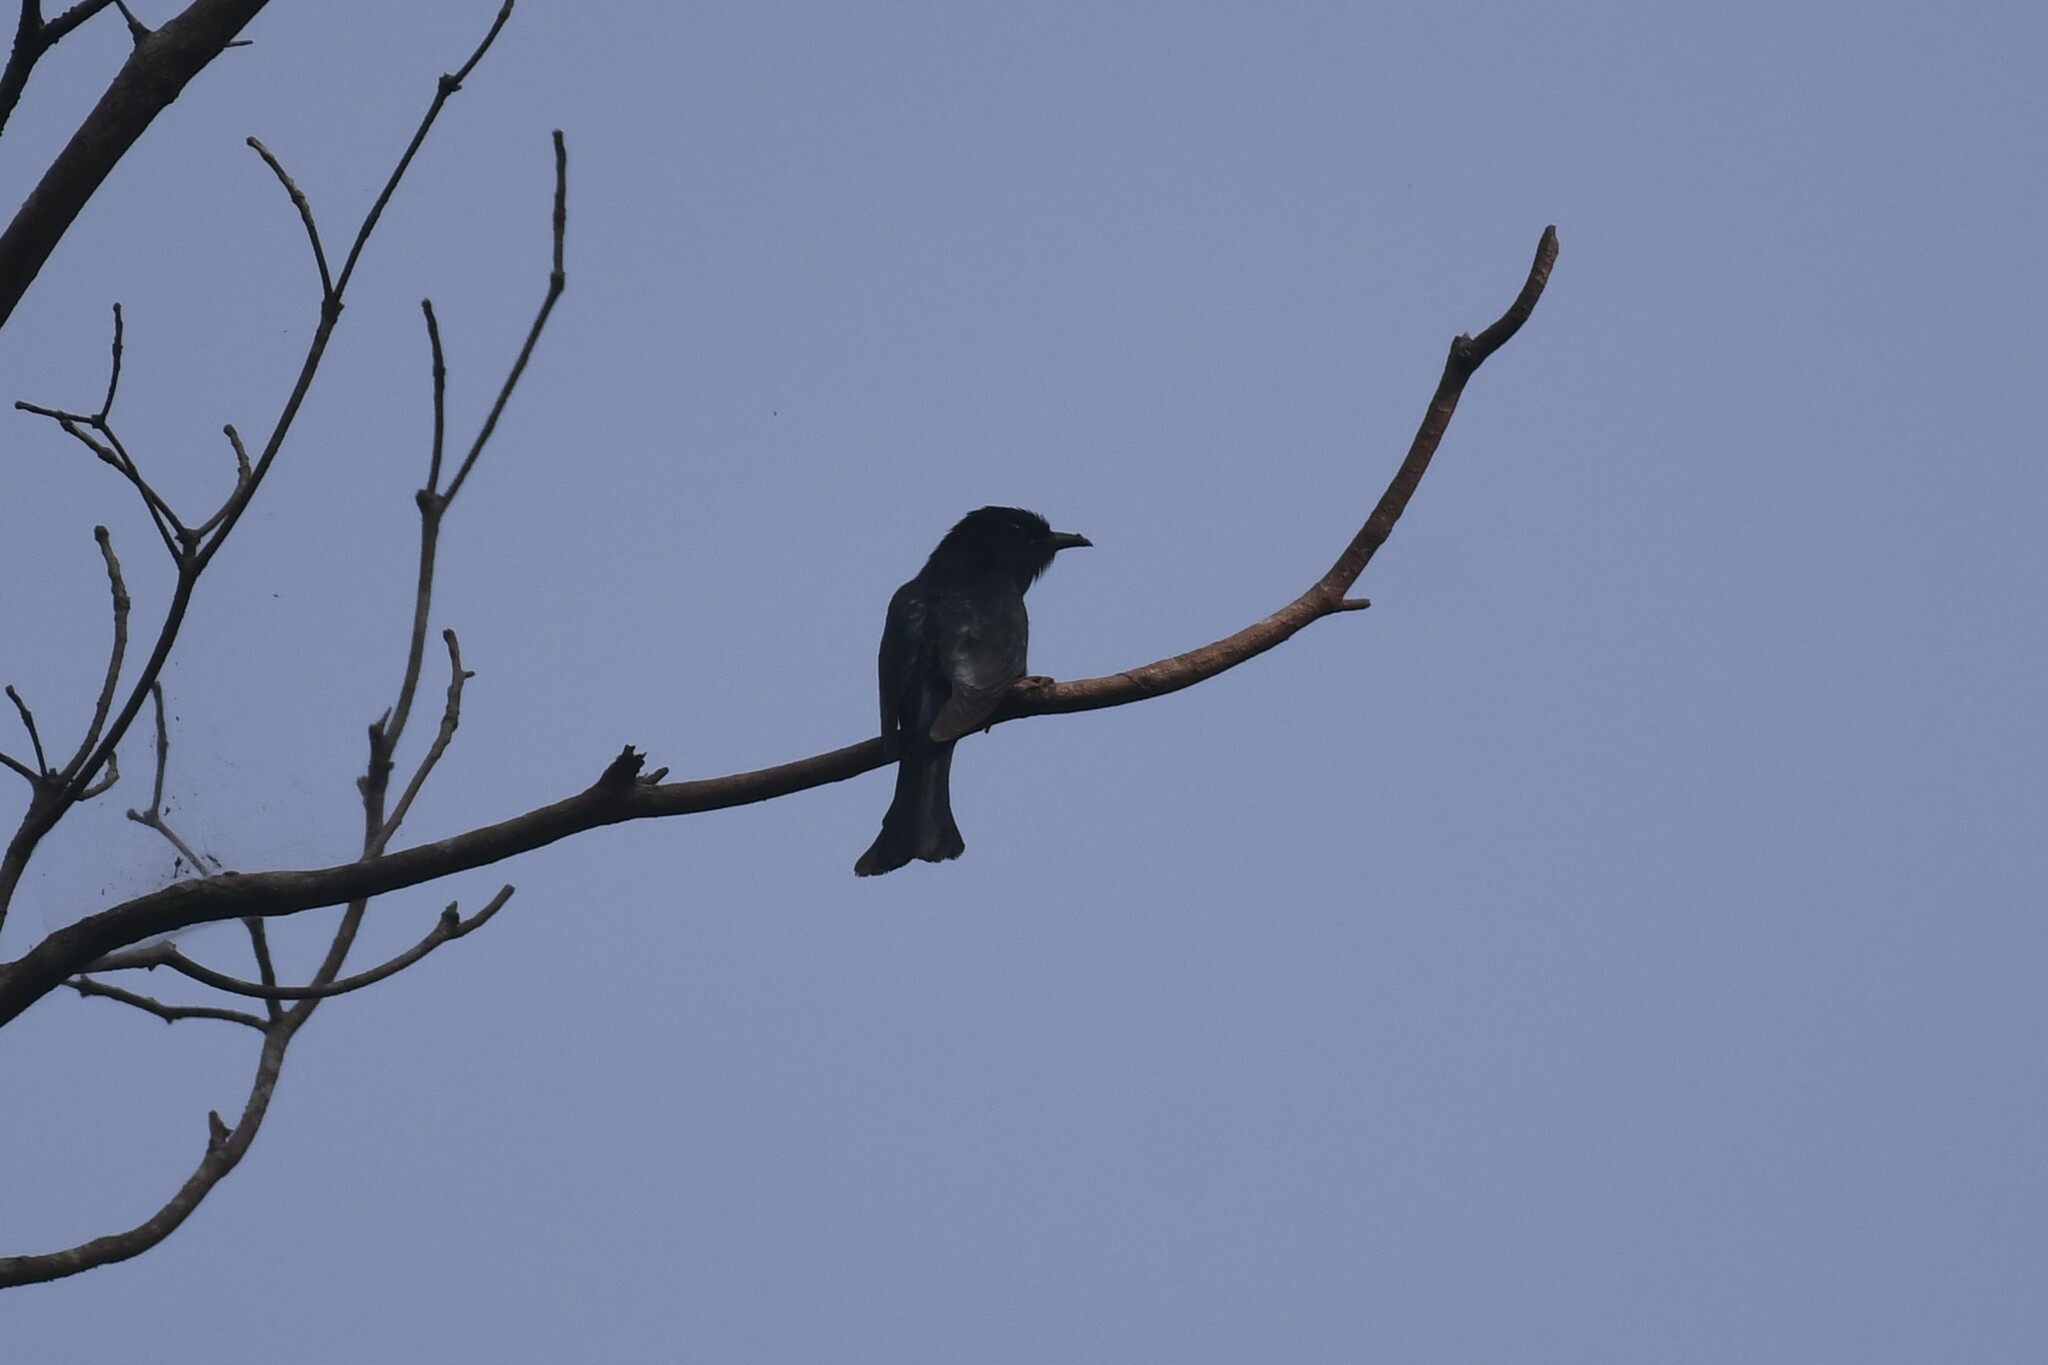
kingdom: Animalia
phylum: Chordata
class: Aves
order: Cuculiformes
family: Cuculidae
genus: Surniculus
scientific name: Surniculus lugubris
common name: Square-tailed drongo-cuckoo
